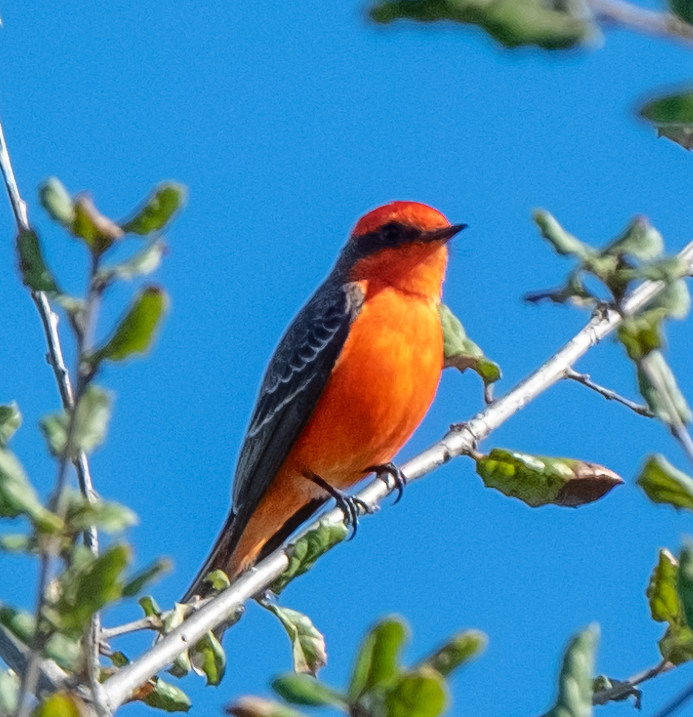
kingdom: Animalia
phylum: Chordata
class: Aves
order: Passeriformes
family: Tyrannidae
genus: Pyrocephalus
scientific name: Pyrocephalus rubinus
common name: Vermilion flycatcher
